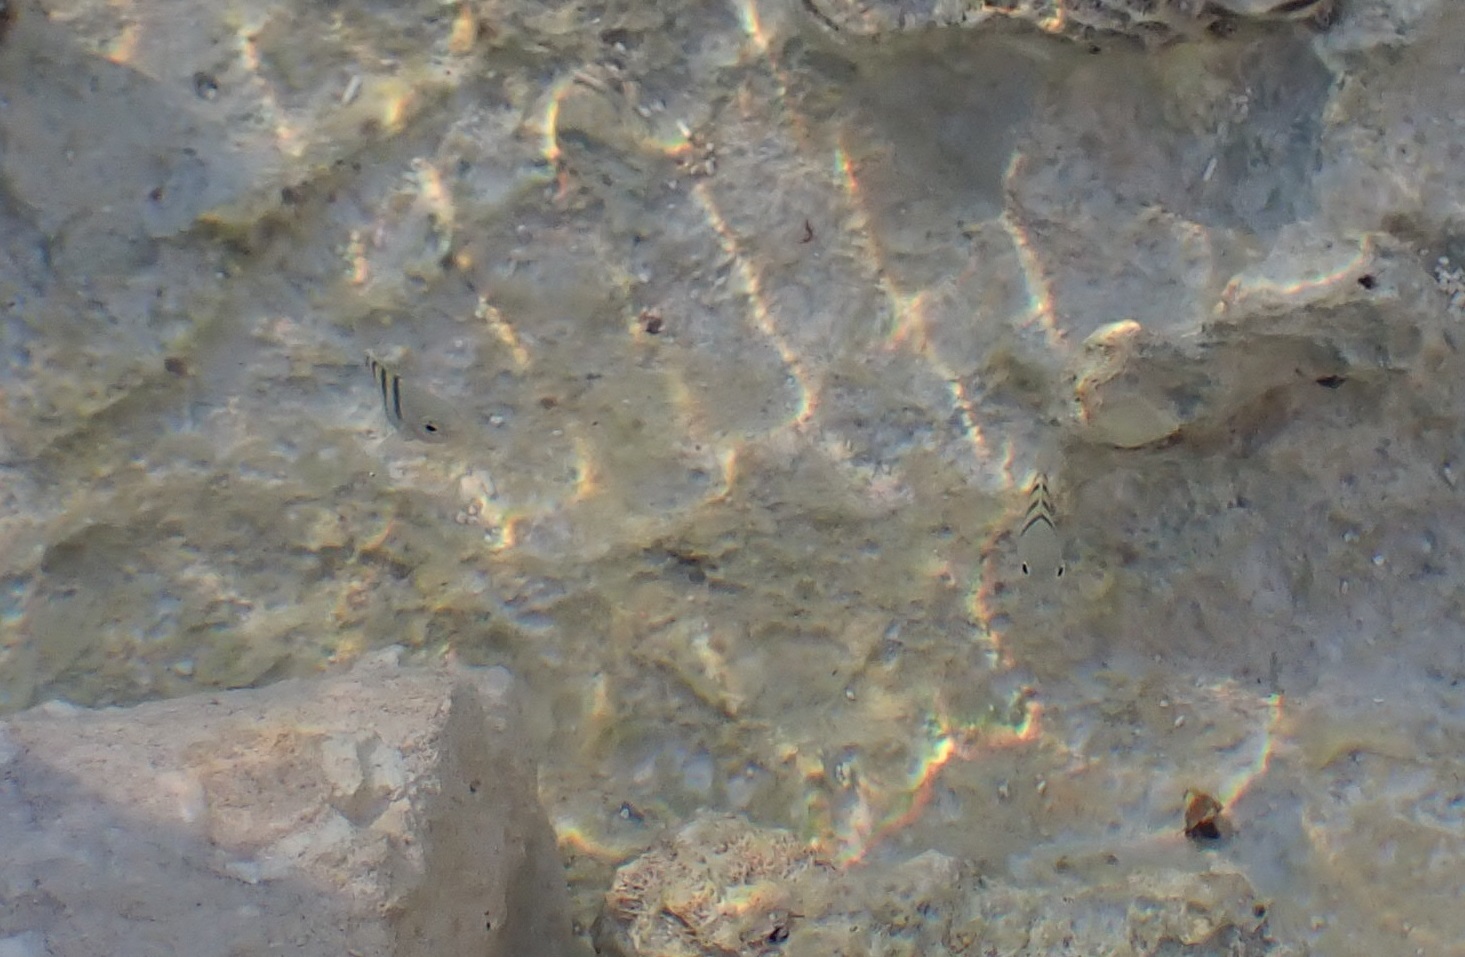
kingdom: Animalia
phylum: Chordata
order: Perciformes
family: Pomacentridae
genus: Abudefduf
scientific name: Abudefduf saxatilis
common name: Sergeant major
